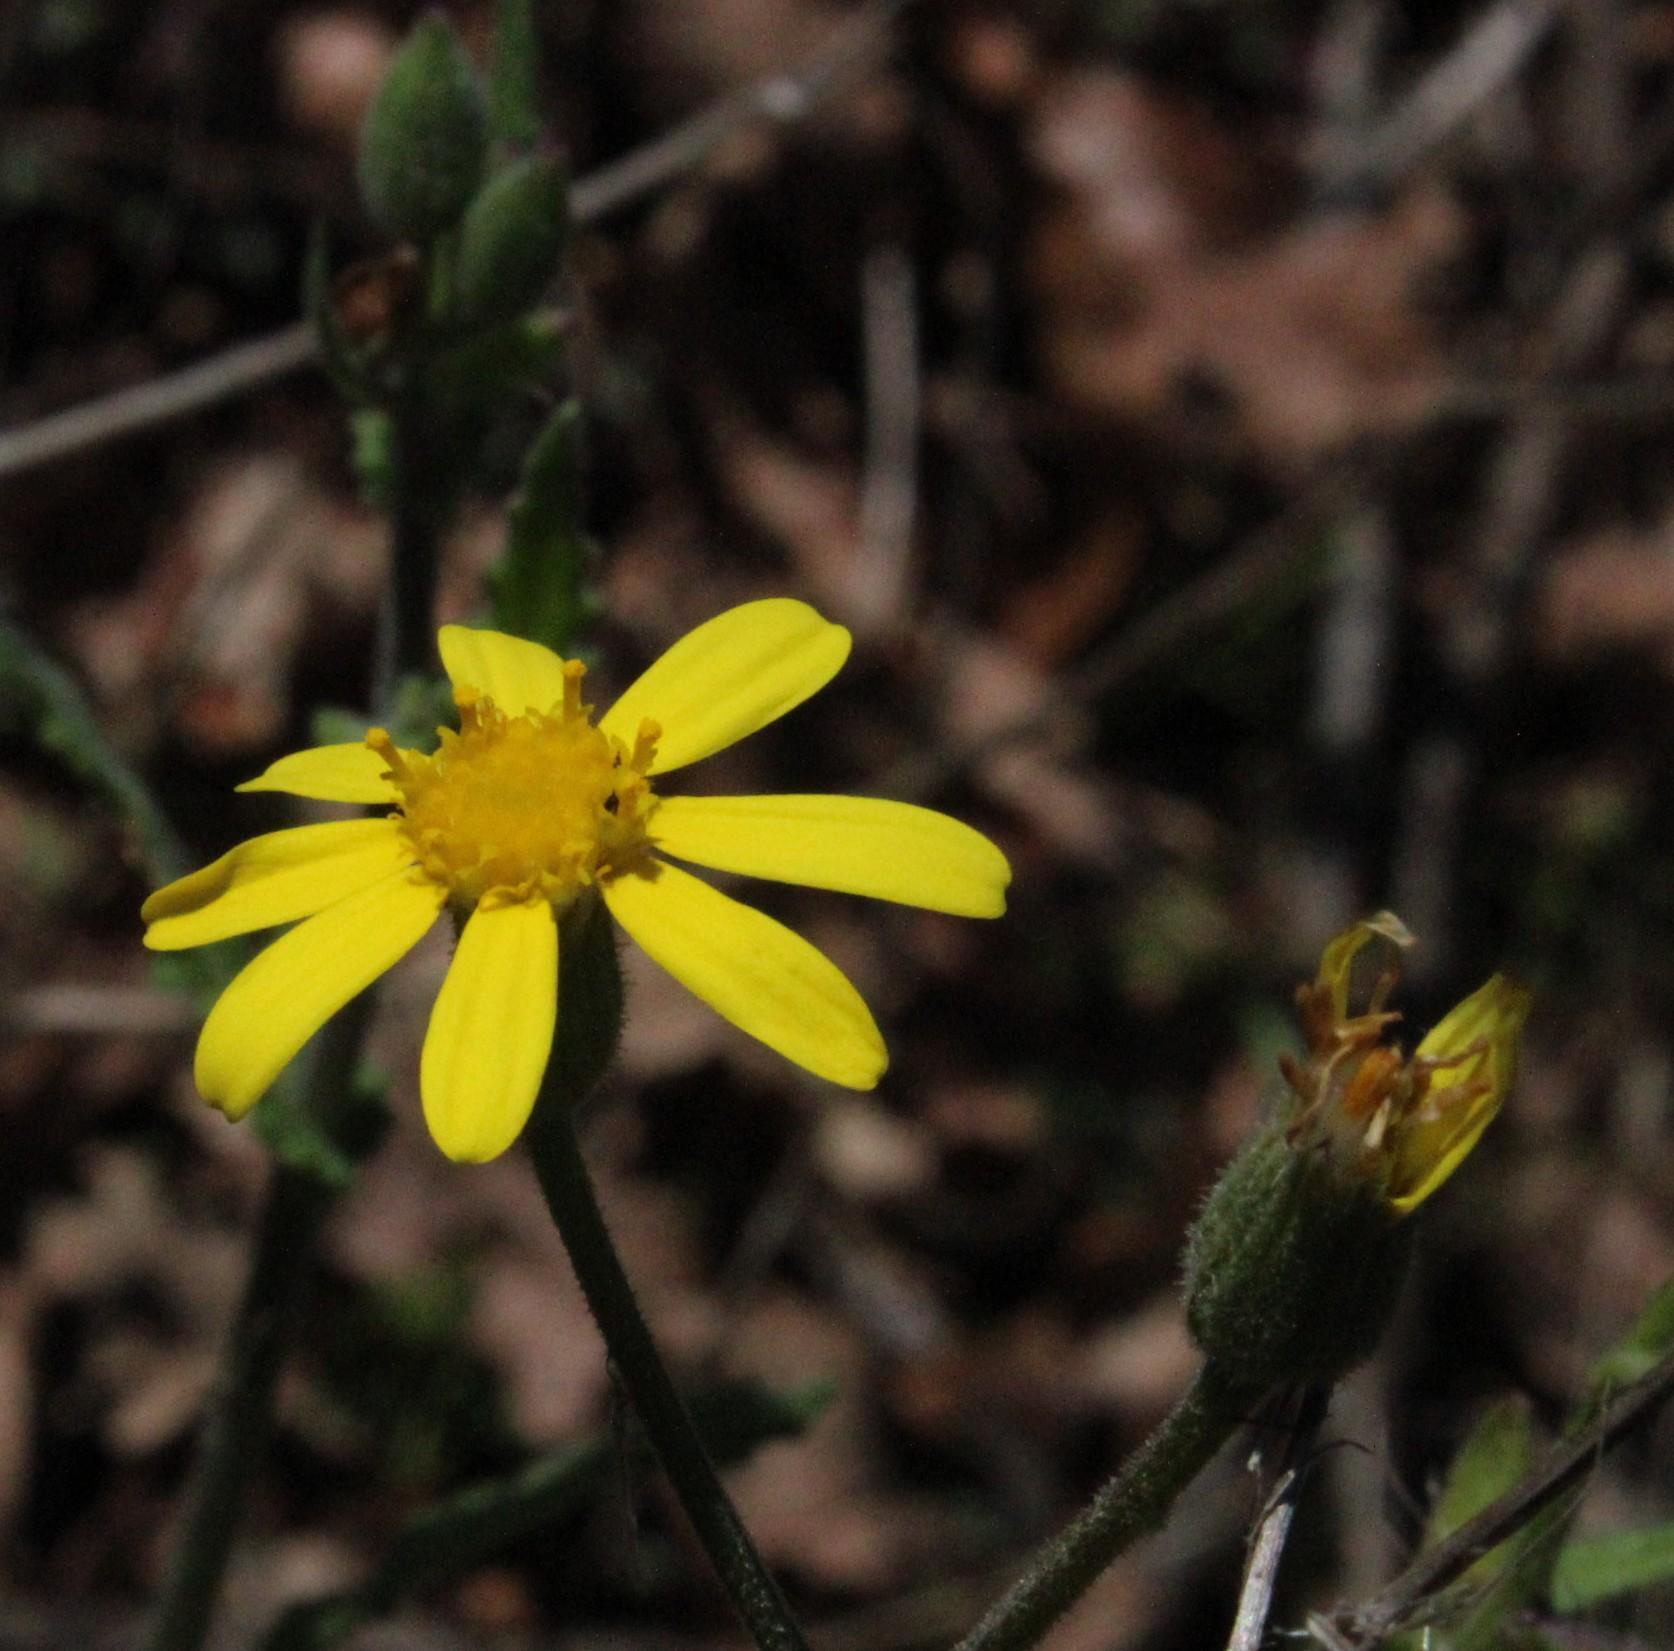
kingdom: Plantae
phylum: Tracheophyta
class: Magnoliopsida
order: Asterales
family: Asteraceae
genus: Senecio
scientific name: Senecio hastatus
